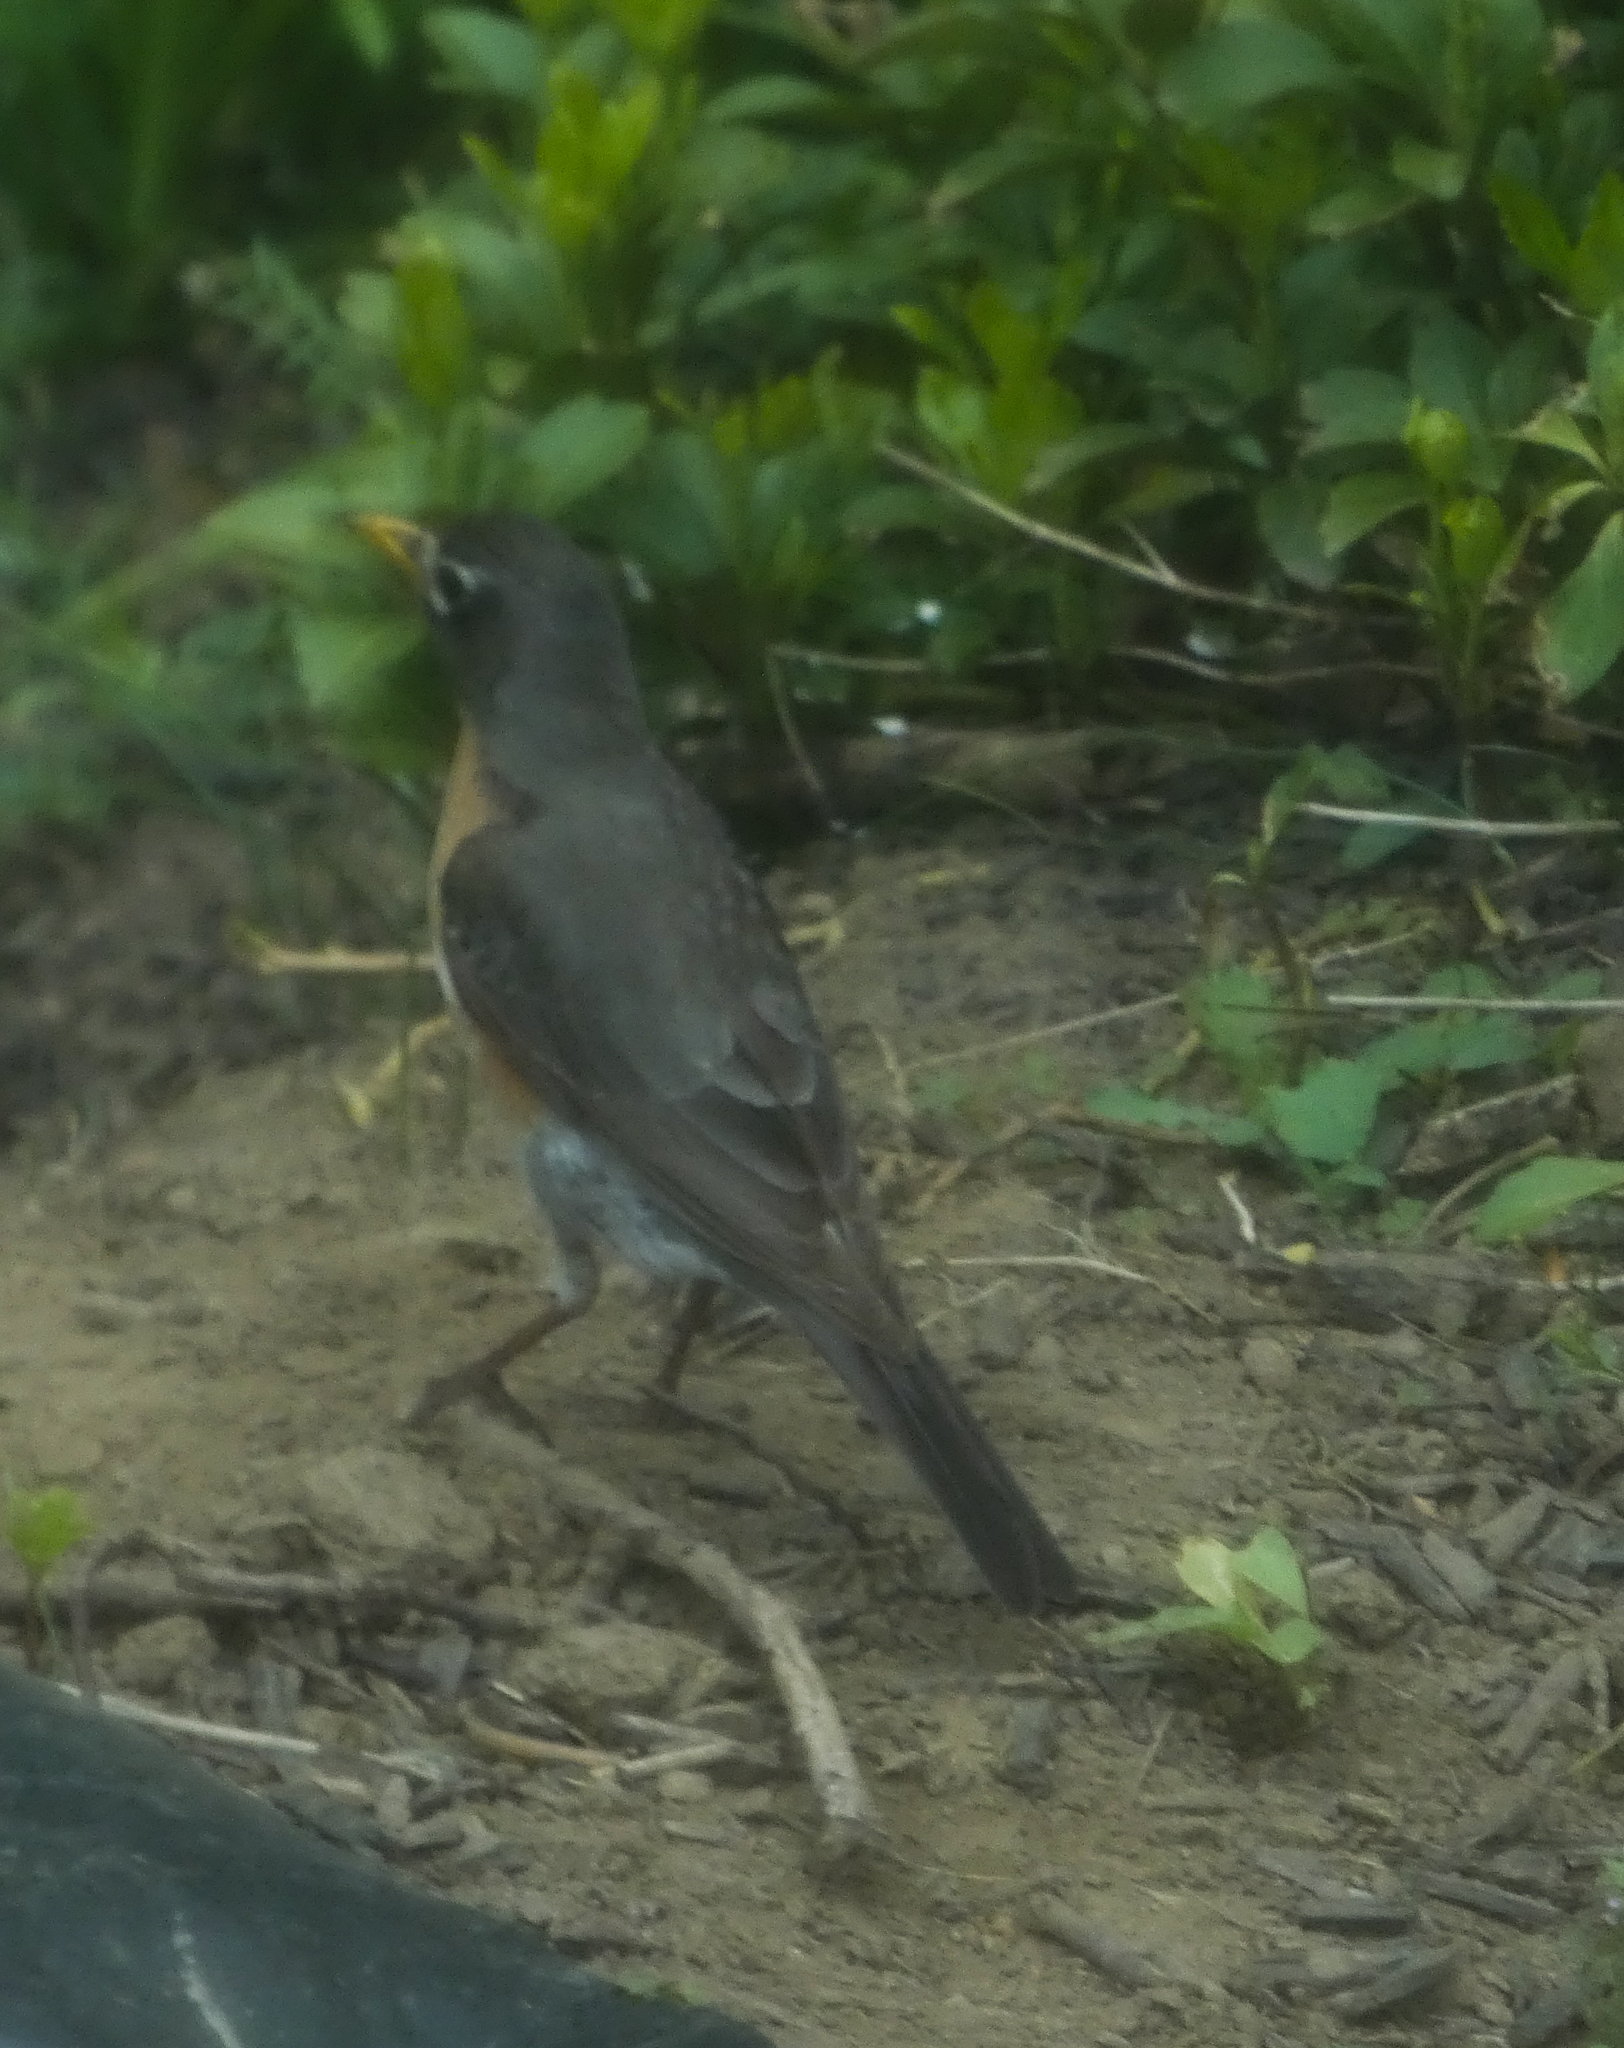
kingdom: Animalia
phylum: Chordata
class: Aves
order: Passeriformes
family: Turdidae
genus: Turdus
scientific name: Turdus migratorius
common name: American robin
